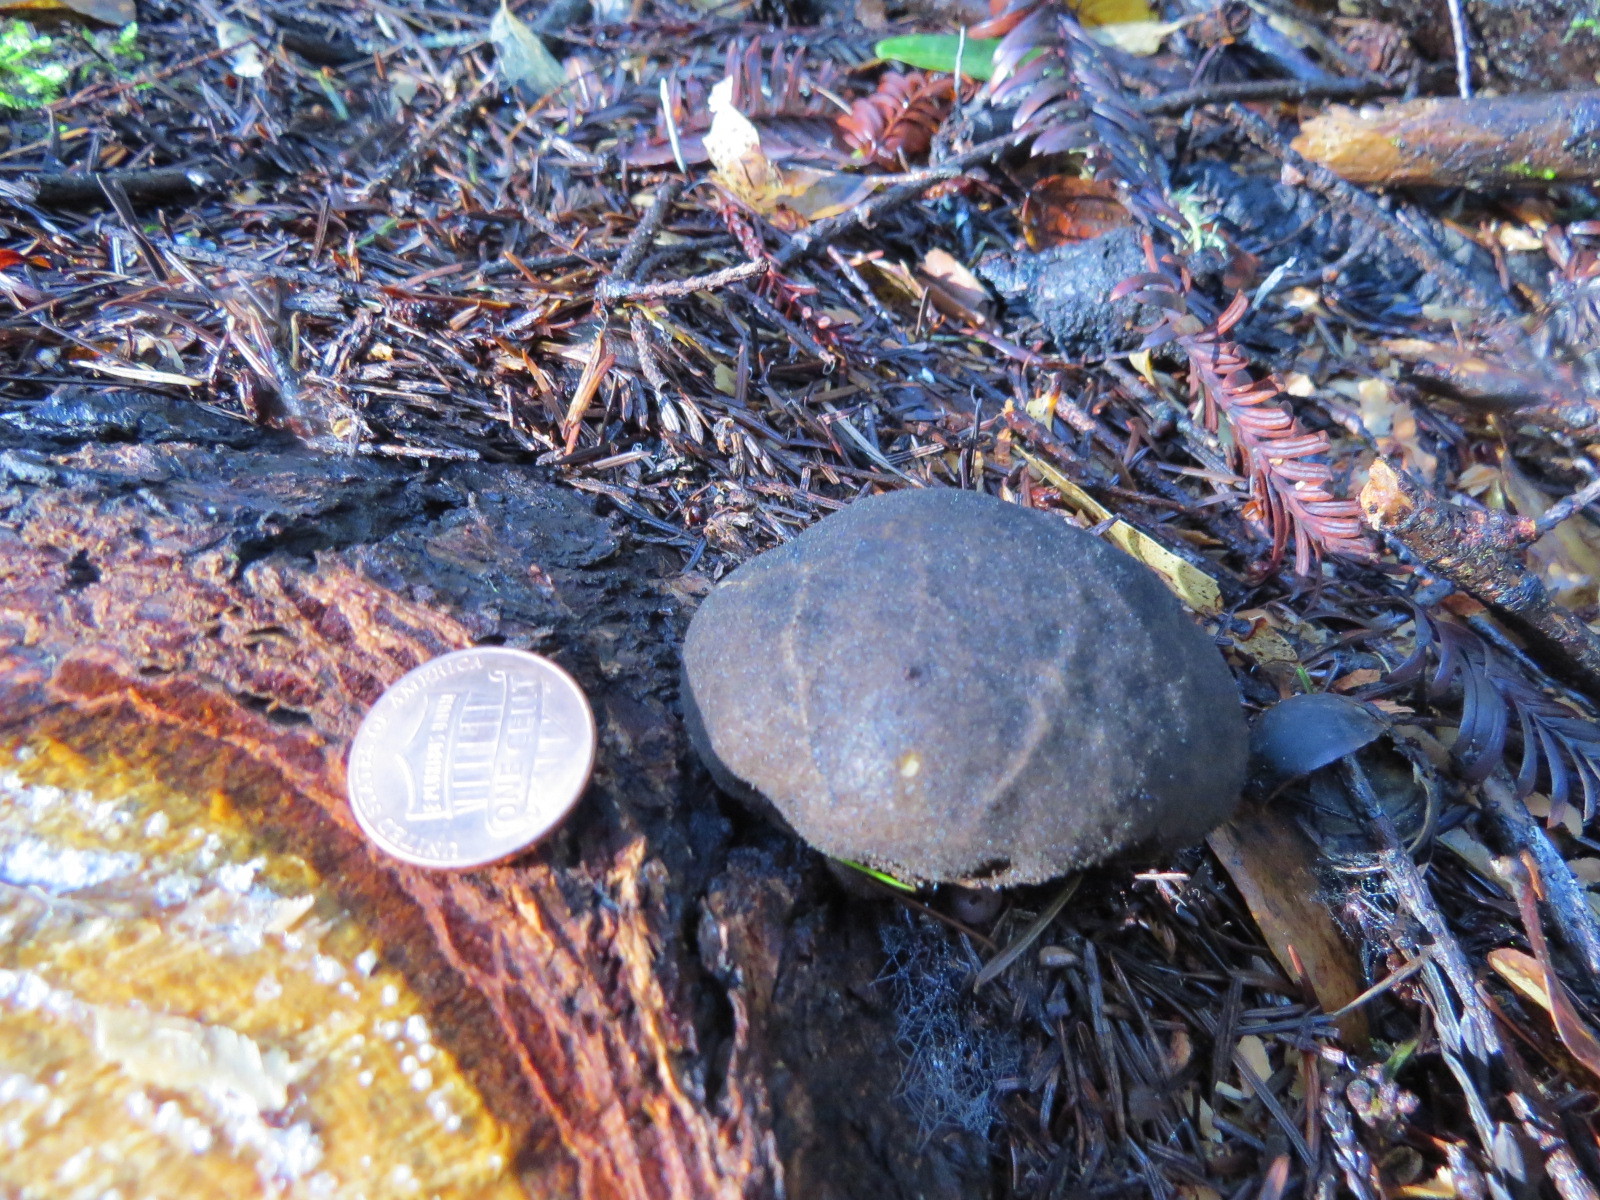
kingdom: Fungi
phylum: Basidiomycota
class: Agaricomycetes
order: Agaricales
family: Lycoperdaceae
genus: Lycoperdon
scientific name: Lycoperdon umbrinum
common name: Umber-brown puffball
